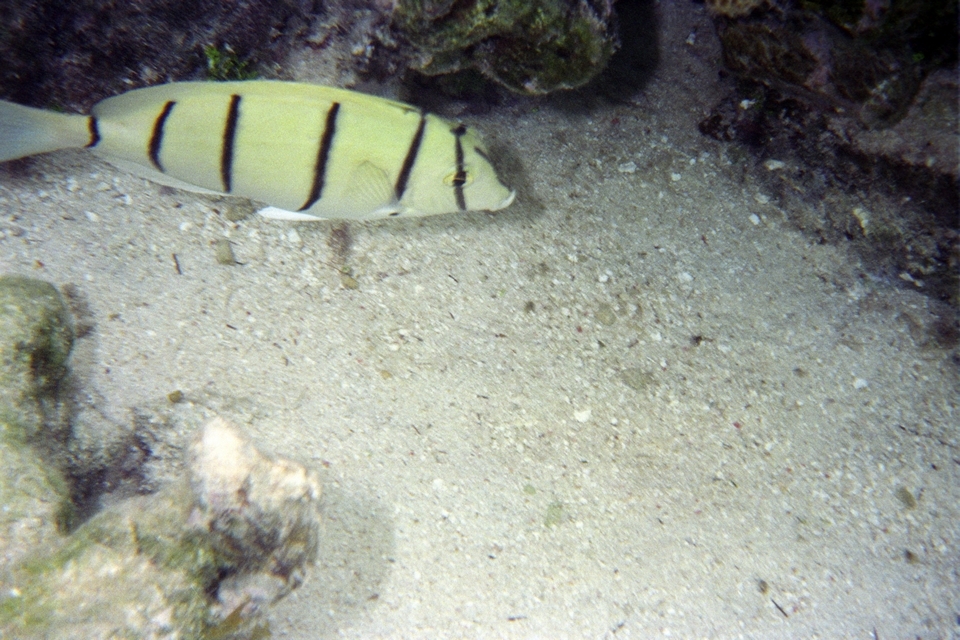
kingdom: Animalia
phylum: Chordata
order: Perciformes
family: Acanthuridae
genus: Acanthurus
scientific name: Acanthurus triostegus
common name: Convict surgeonfish
